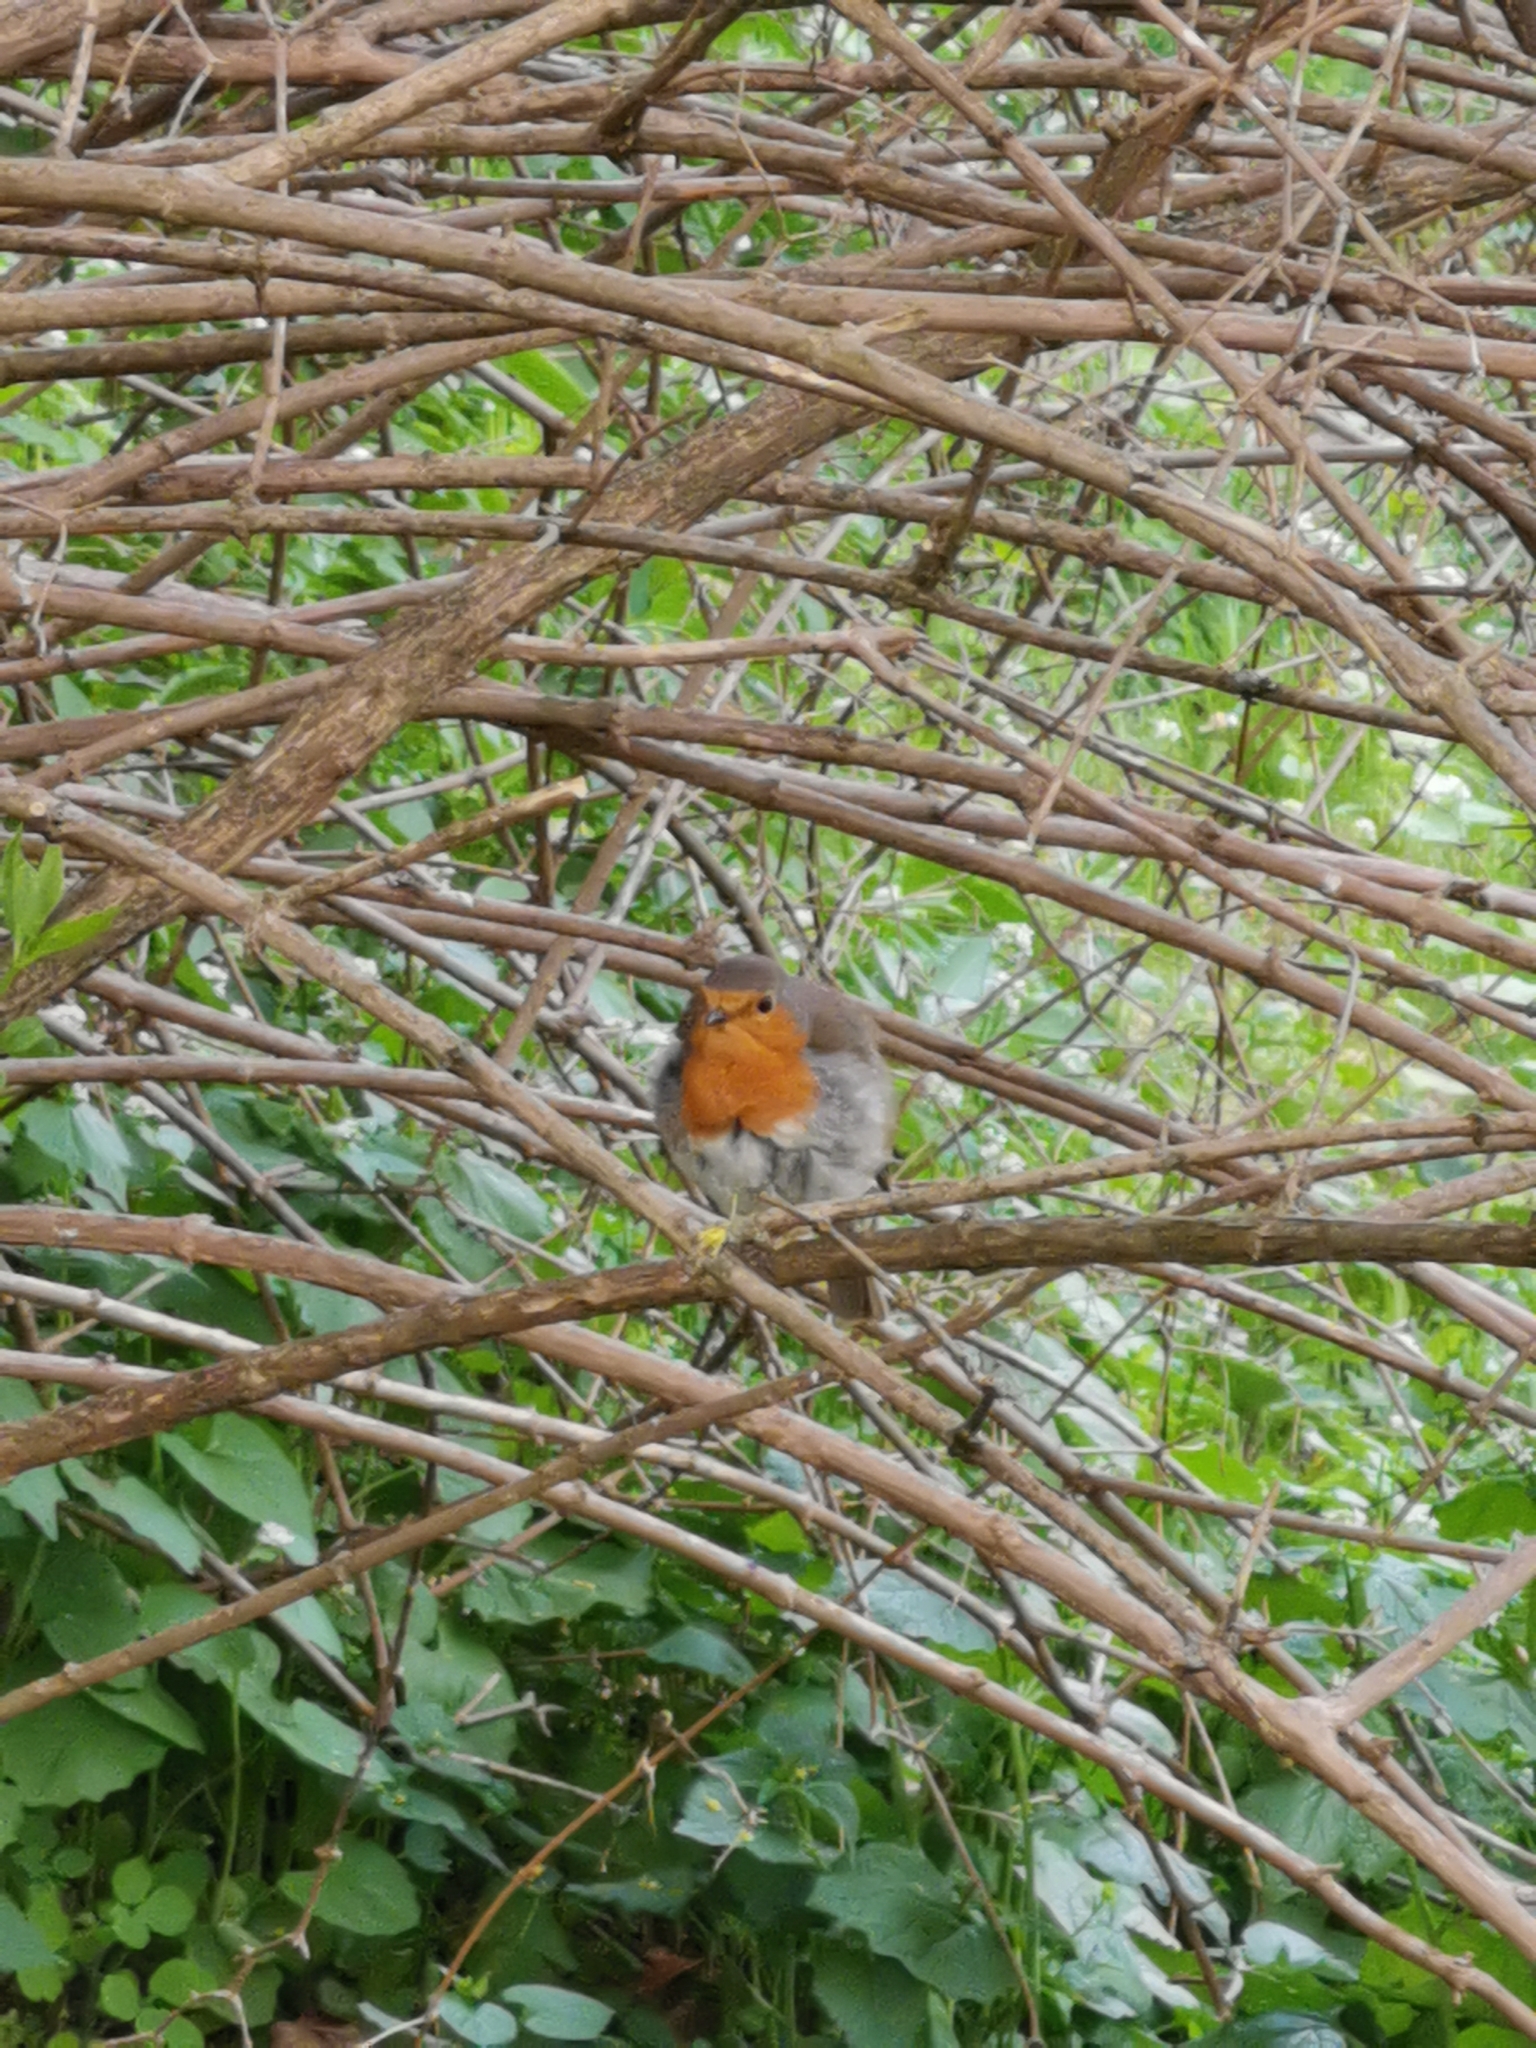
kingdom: Animalia
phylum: Chordata
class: Aves
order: Passeriformes
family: Muscicapidae
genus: Erithacus
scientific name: Erithacus rubecula
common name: European robin
